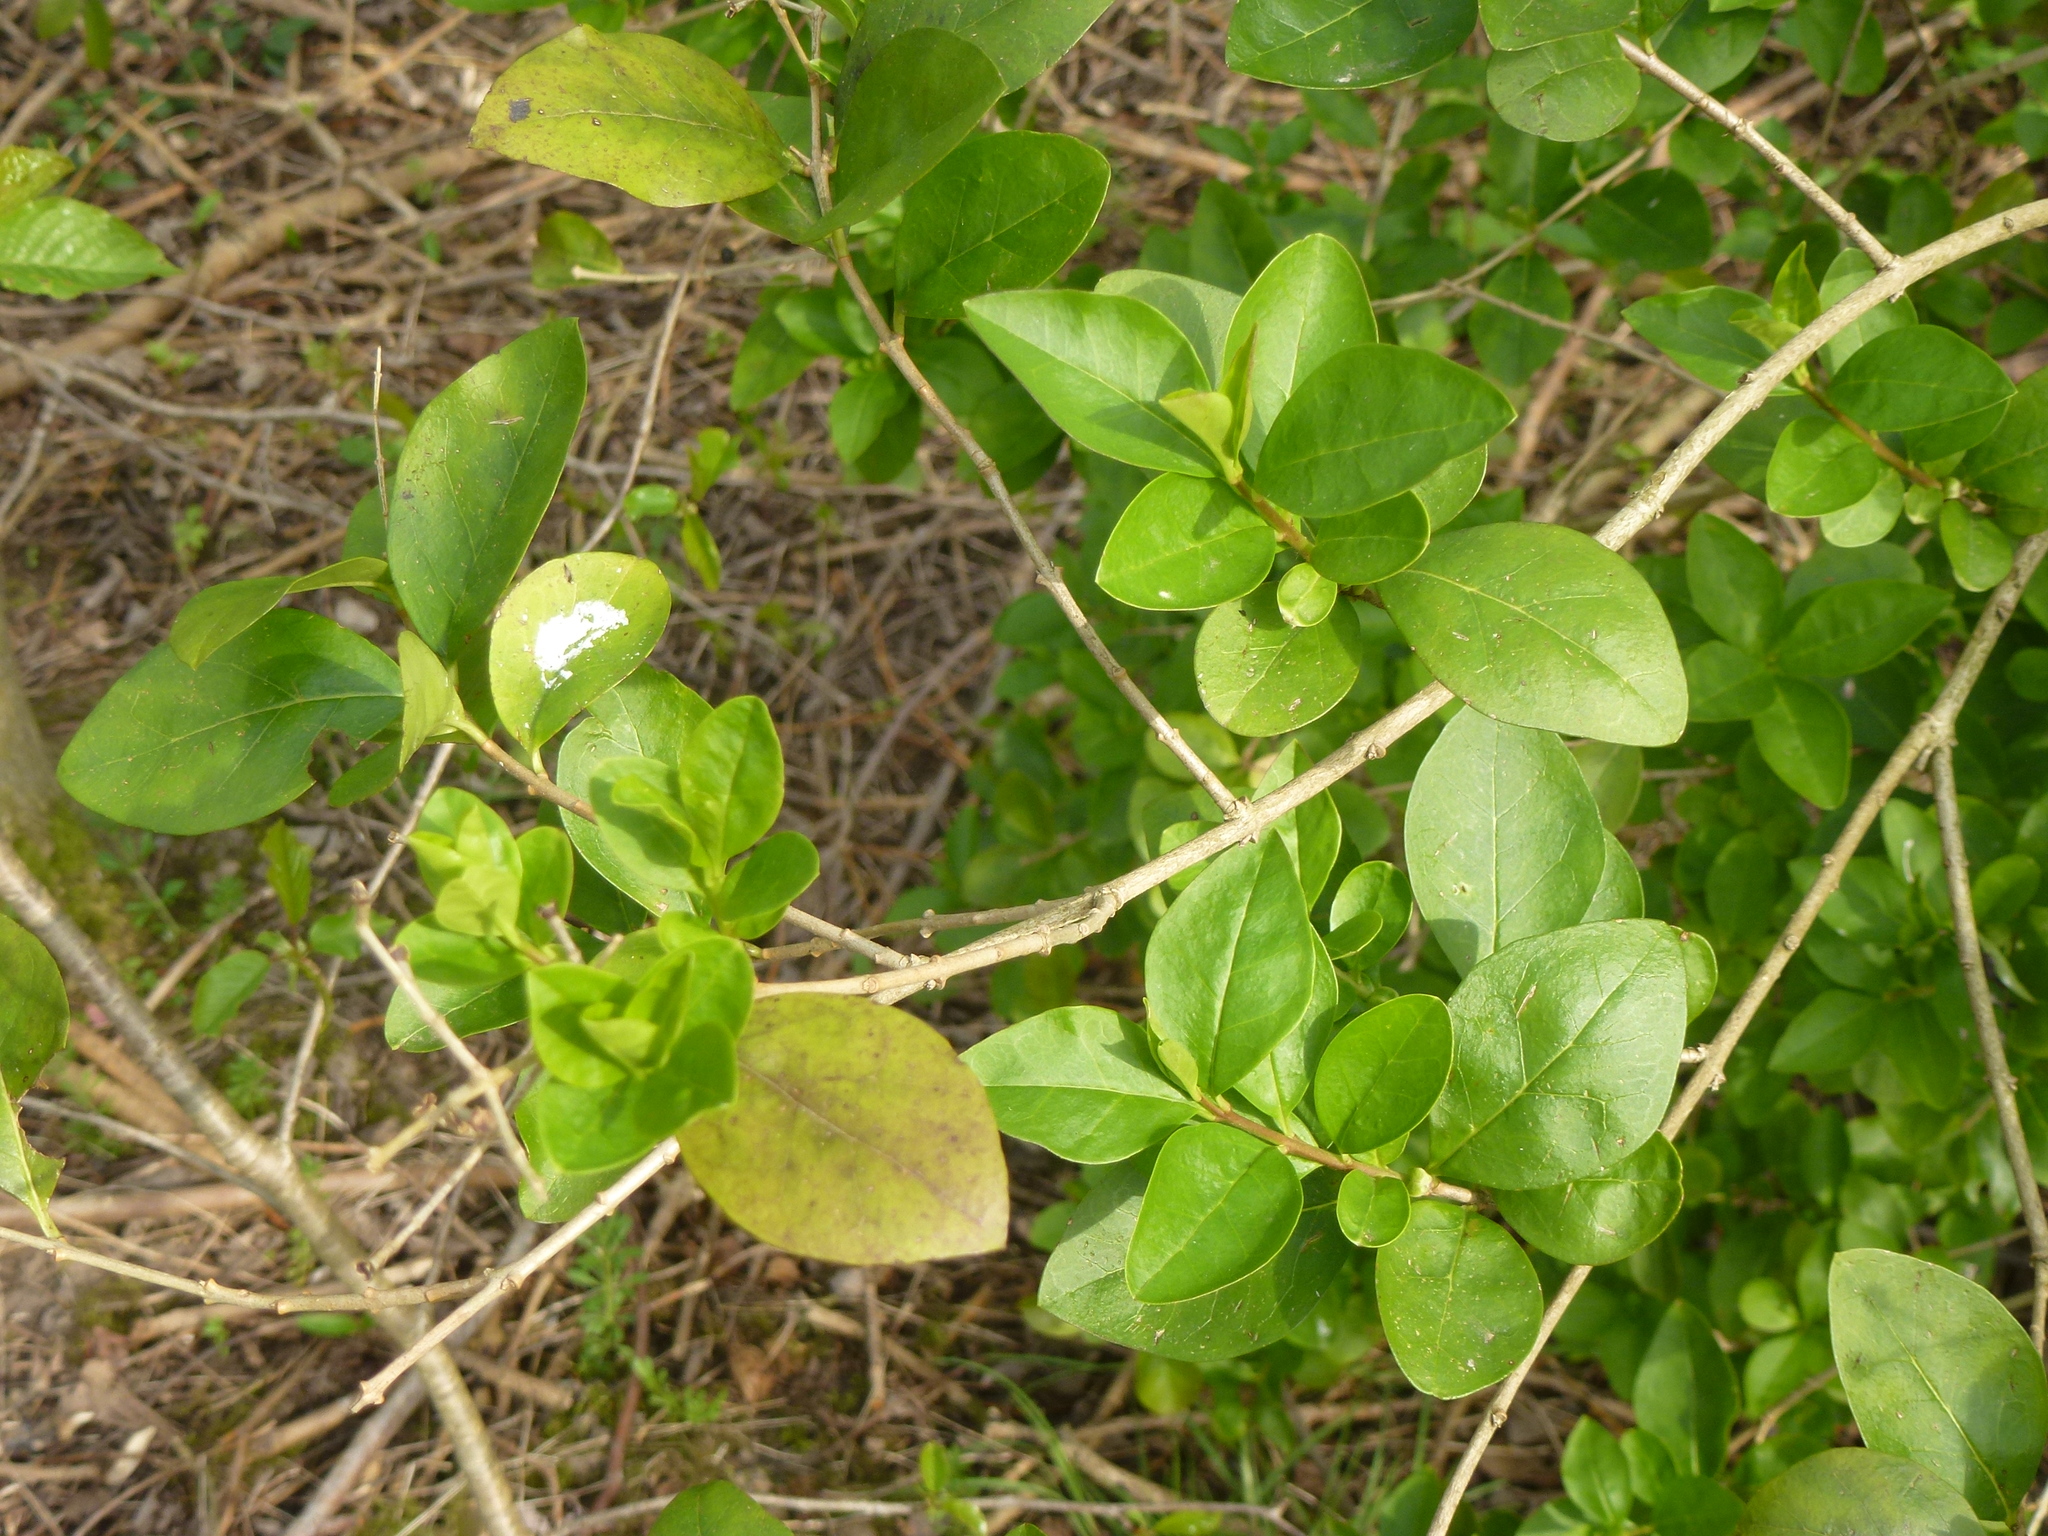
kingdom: Plantae
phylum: Tracheophyta
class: Magnoliopsida
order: Lamiales
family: Oleaceae
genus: Ligustrum
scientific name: Ligustrum ovalifolium
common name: California privet
